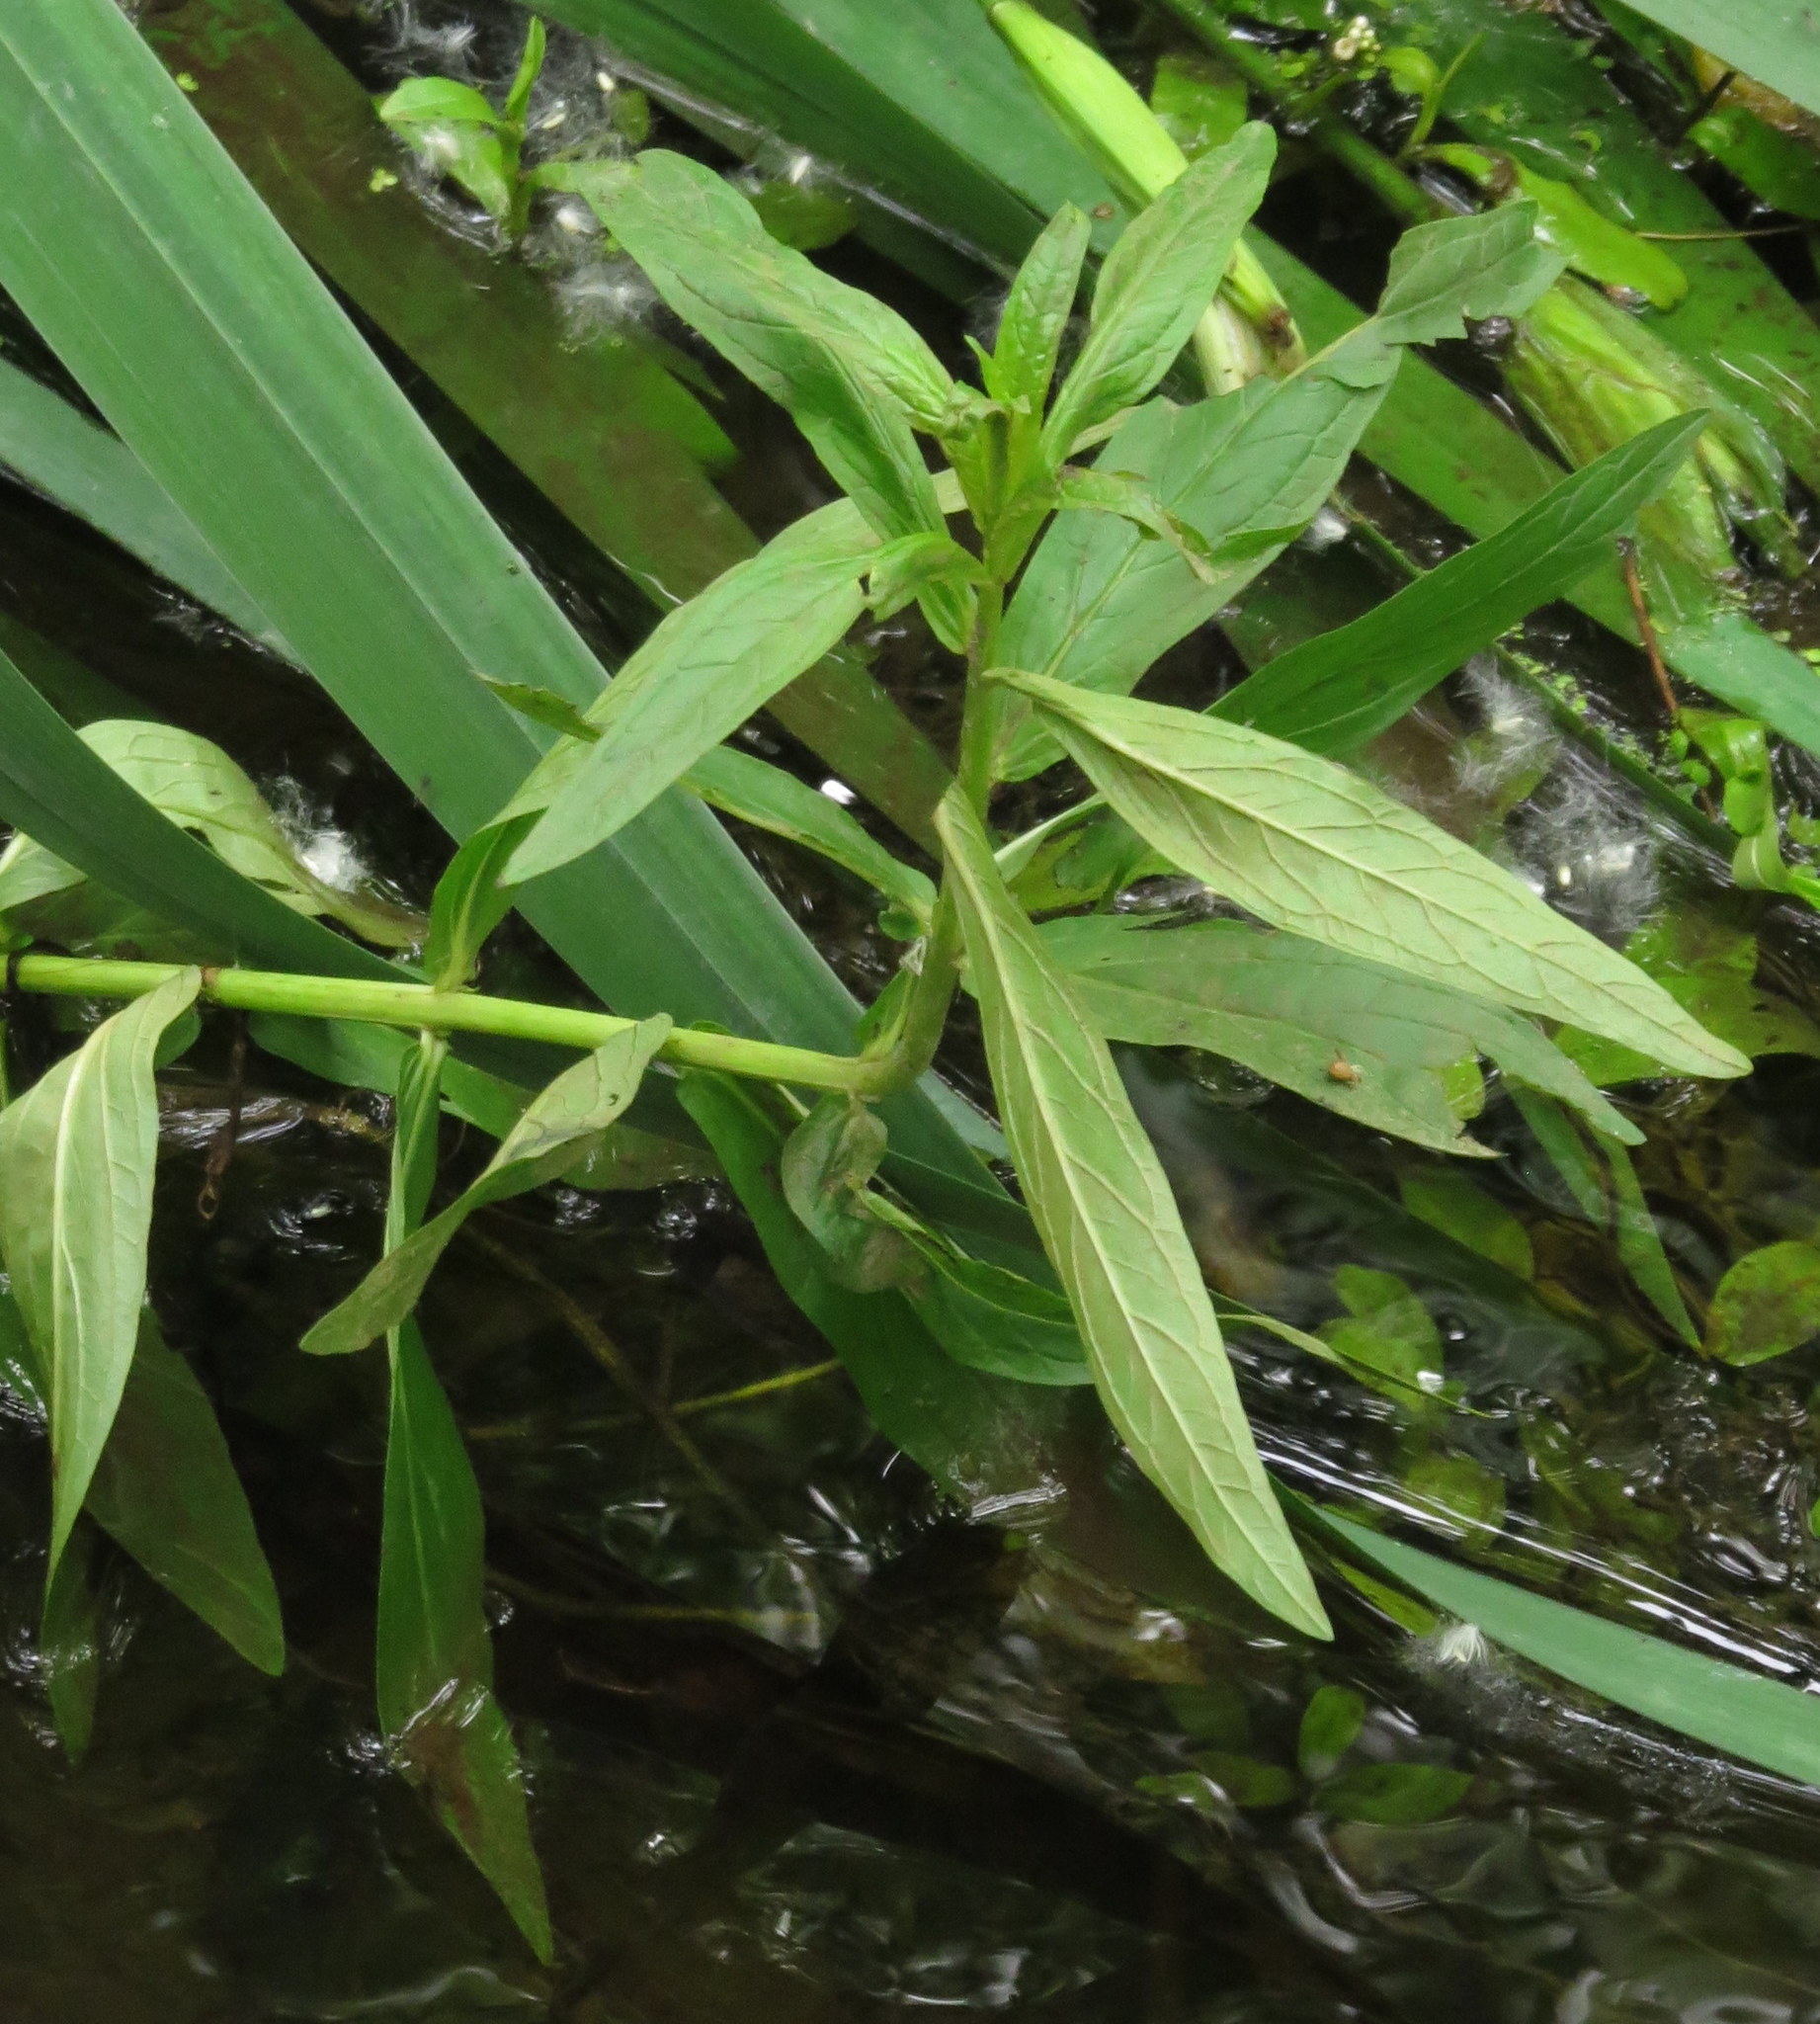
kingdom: Plantae
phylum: Tracheophyta
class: Magnoliopsida
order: Myrtales
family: Lythraceae
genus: Lythrum
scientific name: Lythrum salicaria
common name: Purple loosestrife
